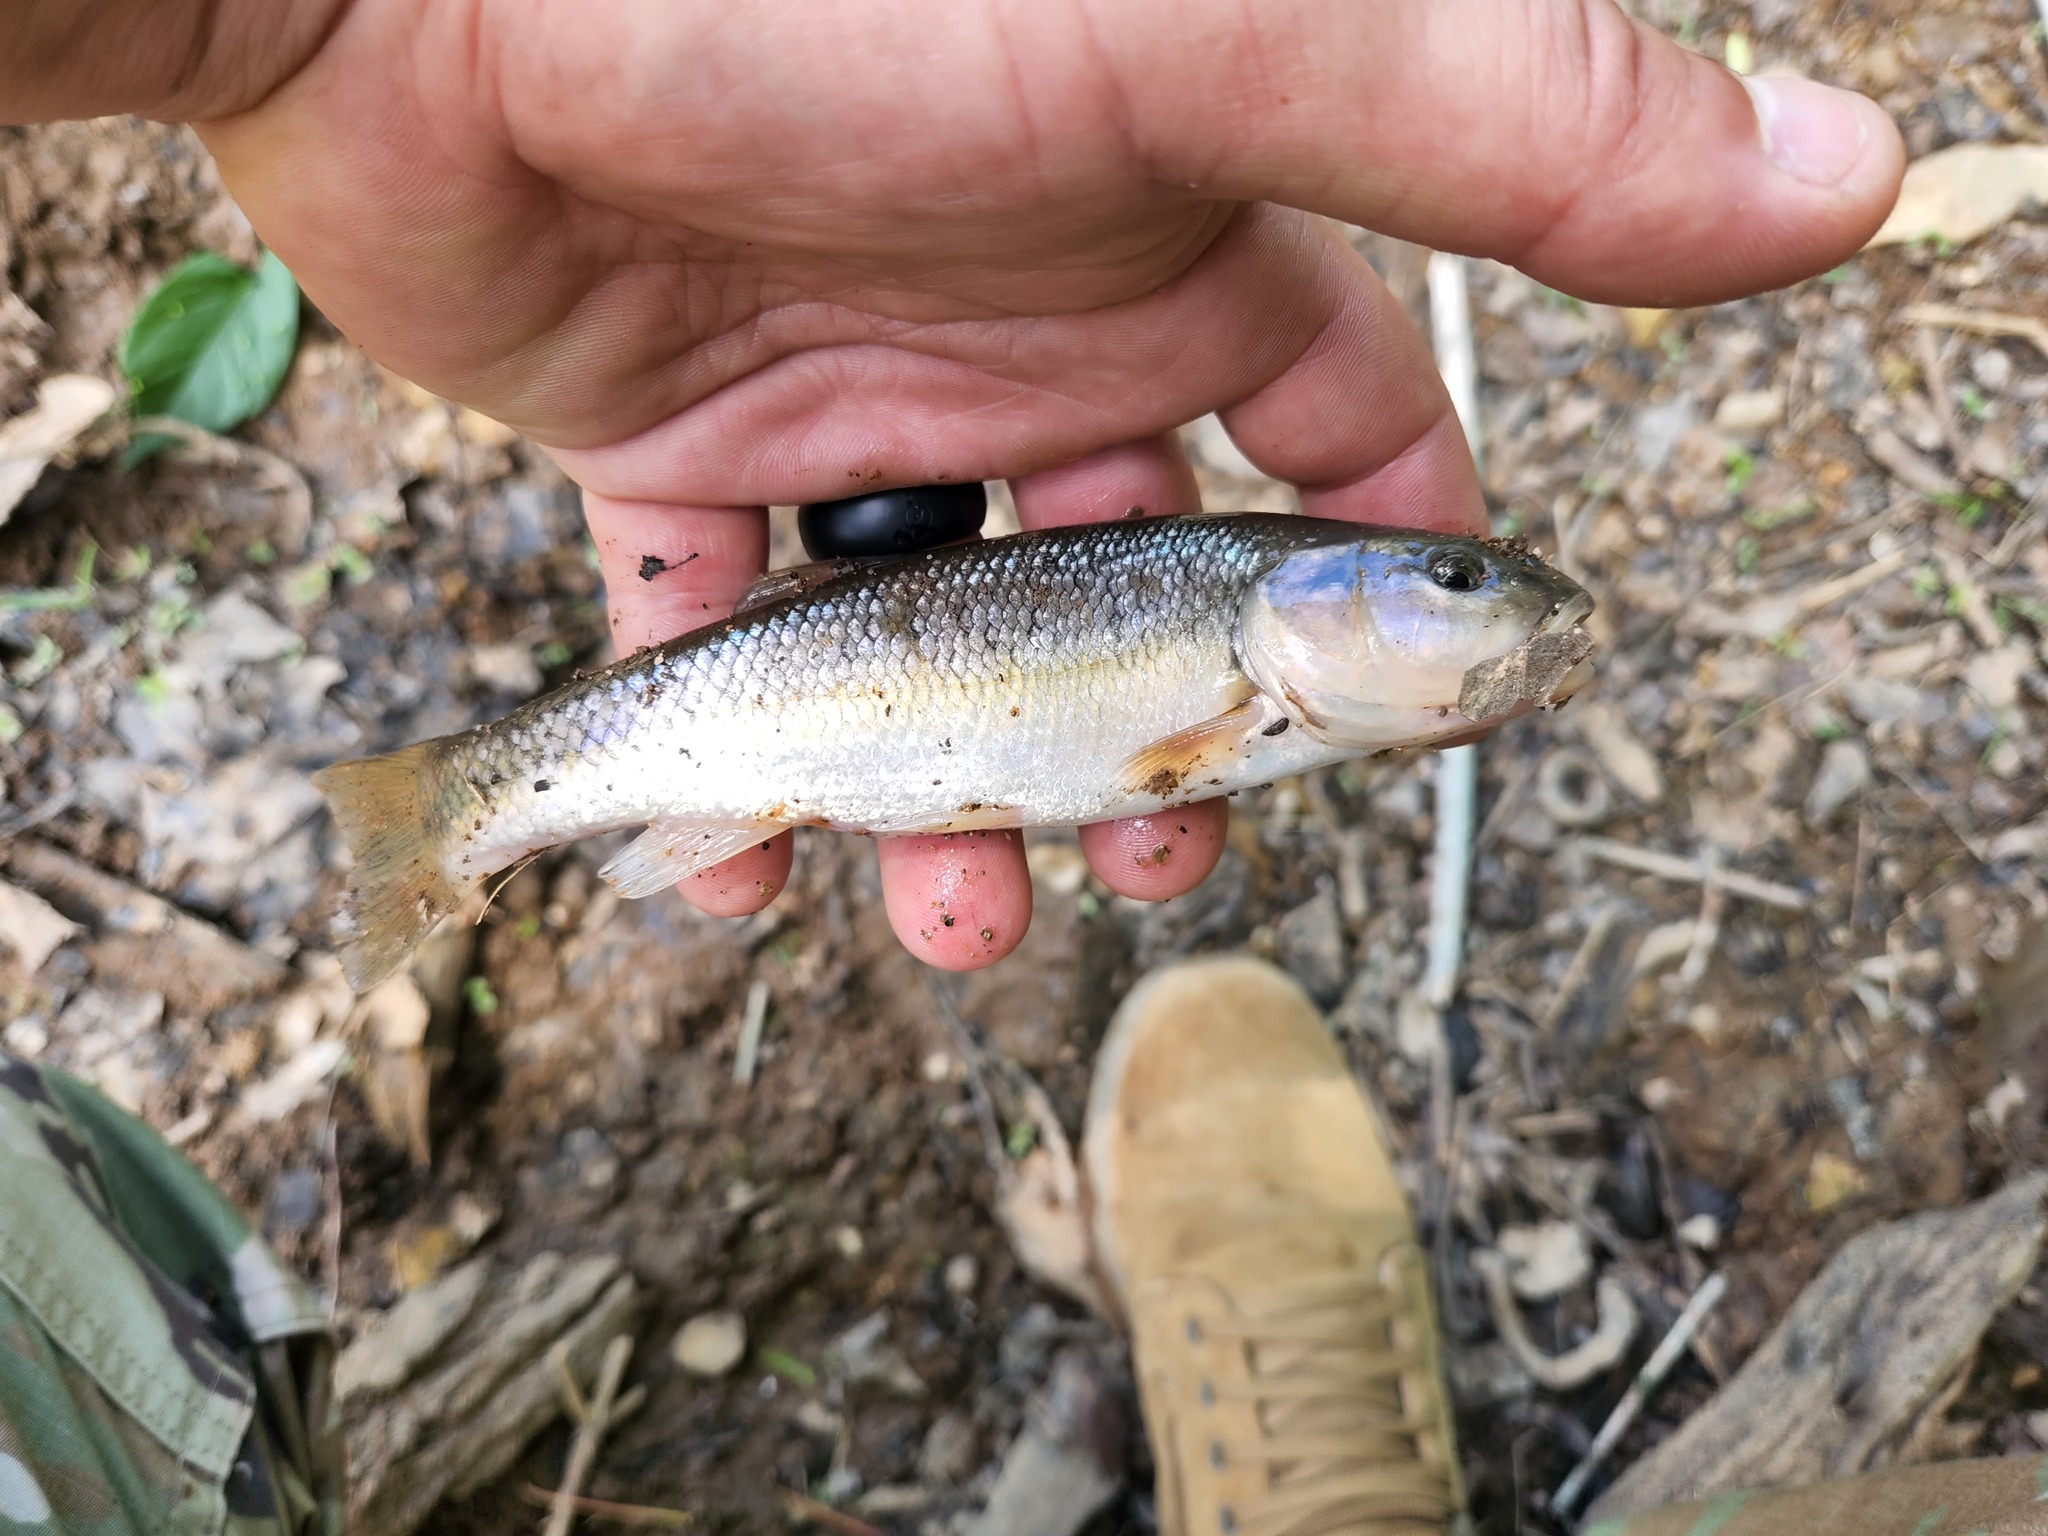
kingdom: Animalia
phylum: Chordata
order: Cypriniformes
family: Cyprinidae
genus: Semotilus
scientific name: Semotilus atromaculatus
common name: Creek chub
